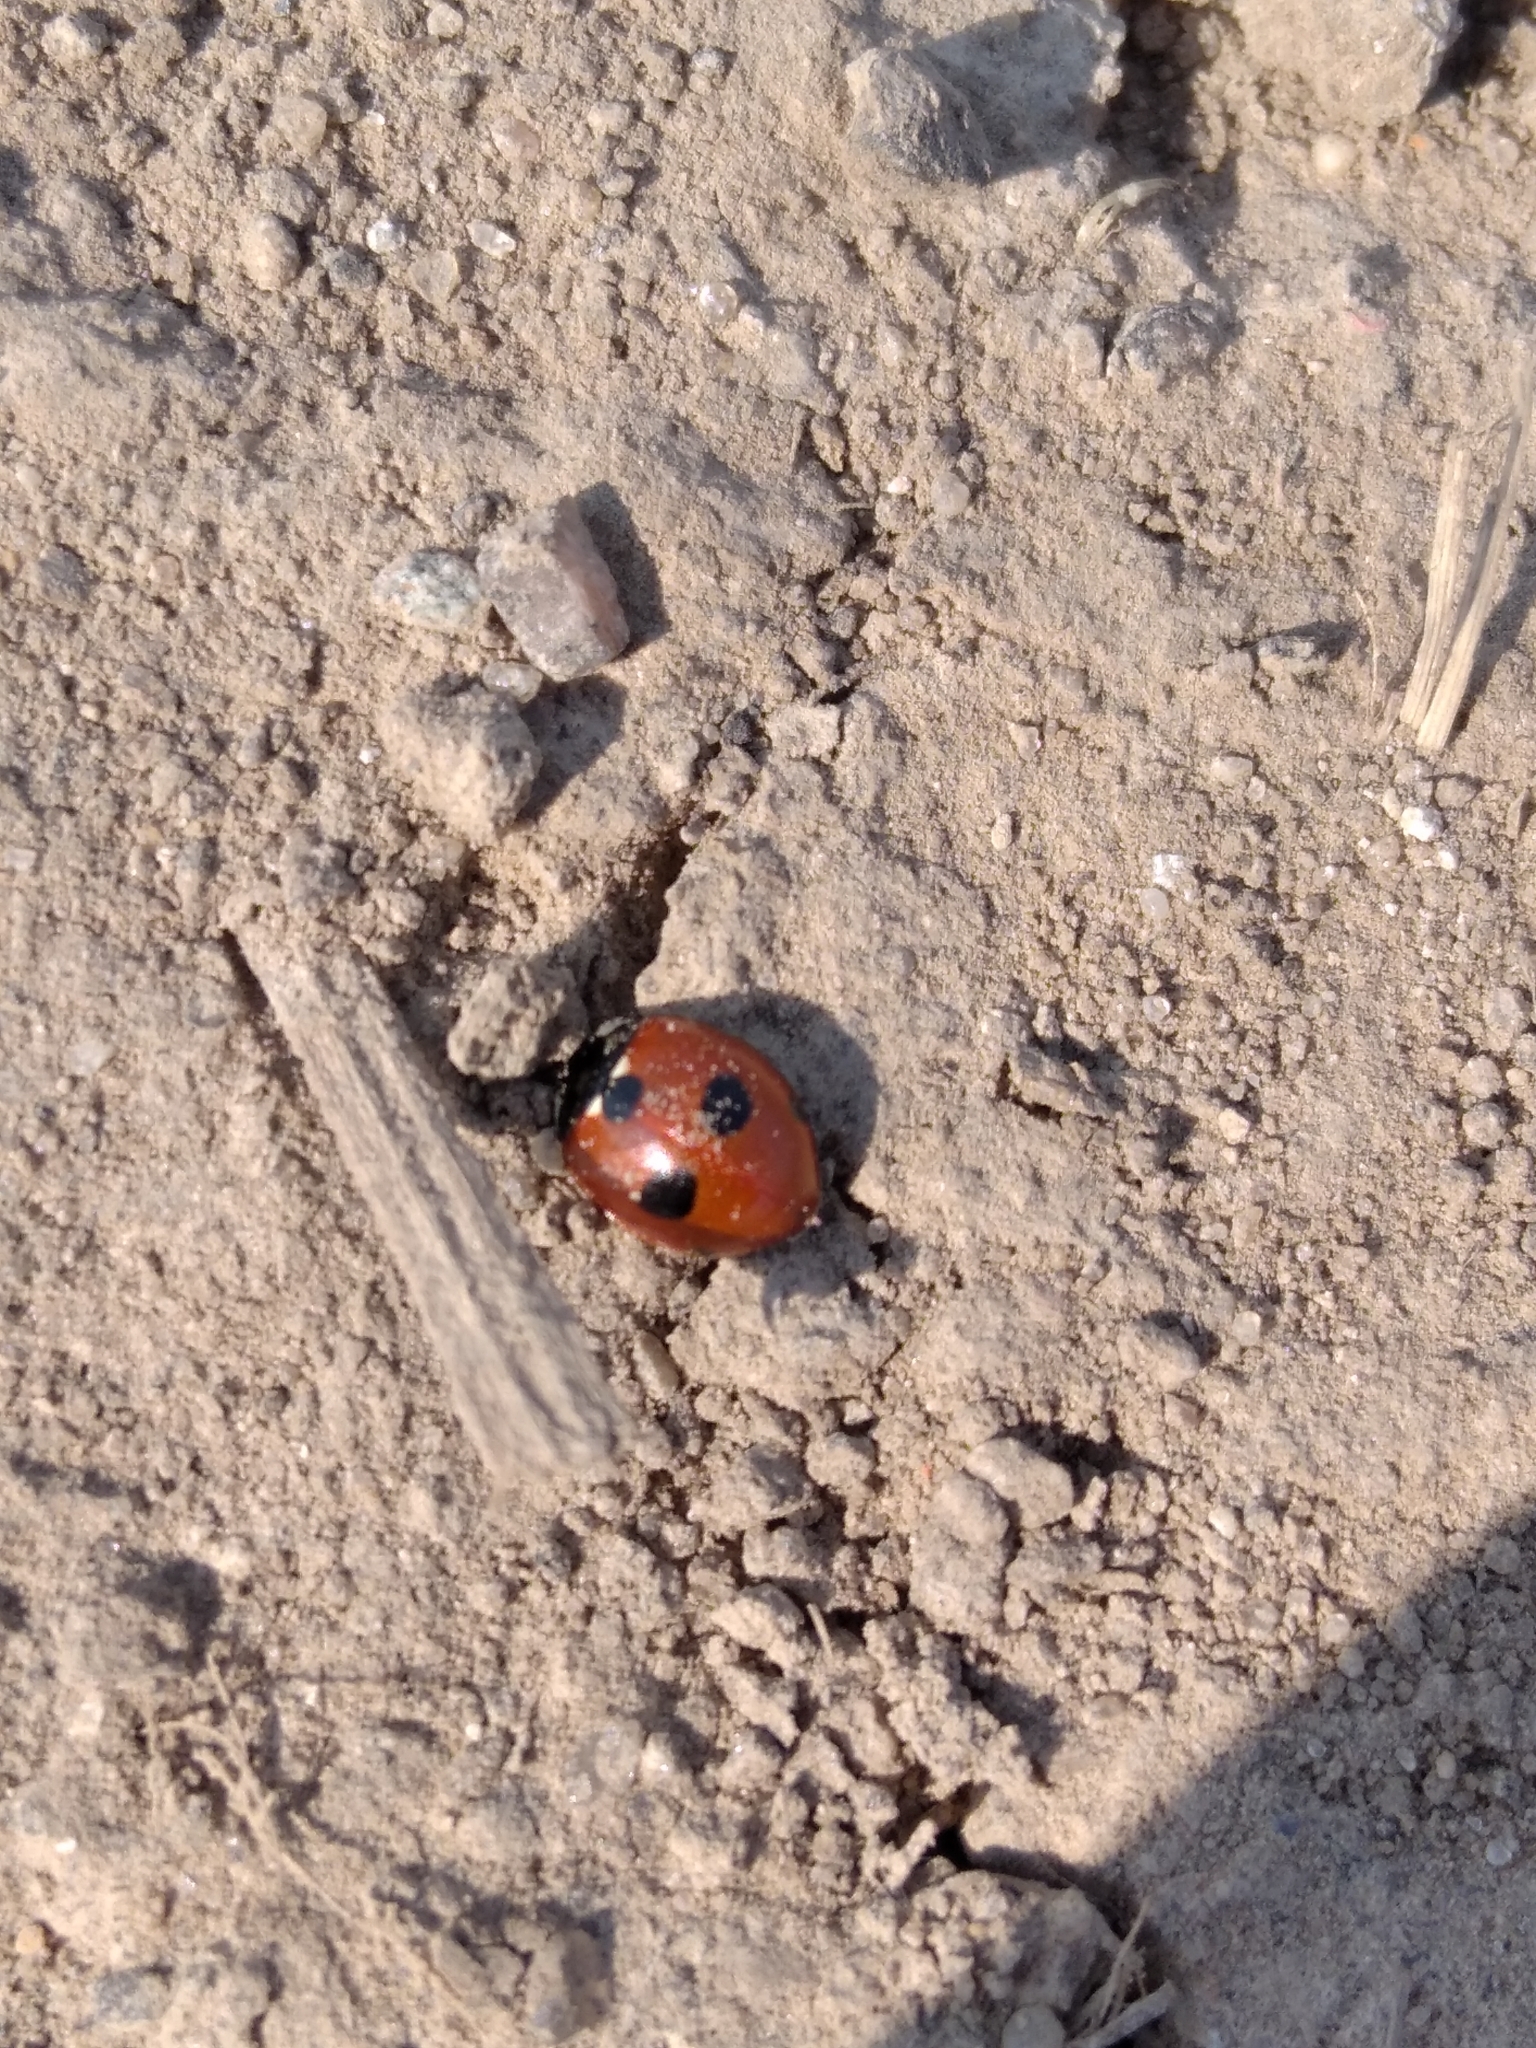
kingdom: Animalia
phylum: Arthropoda
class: Insecta
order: Coleoptera
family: Coccinellidae
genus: Coccinella
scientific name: Coccinella quinquepunctata
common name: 5-spot ladybird
